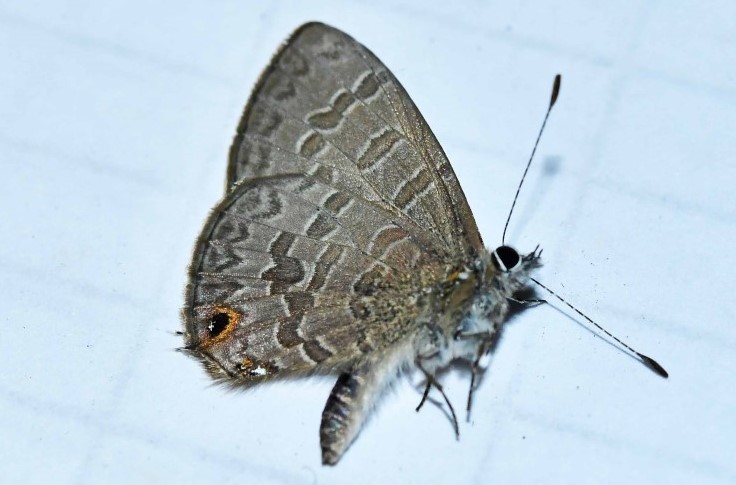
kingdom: Animalia
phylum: Arthropoda
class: Insecta
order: Lepidoptera
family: Lycaenidae
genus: Prosotas
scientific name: Prosotas felderi
